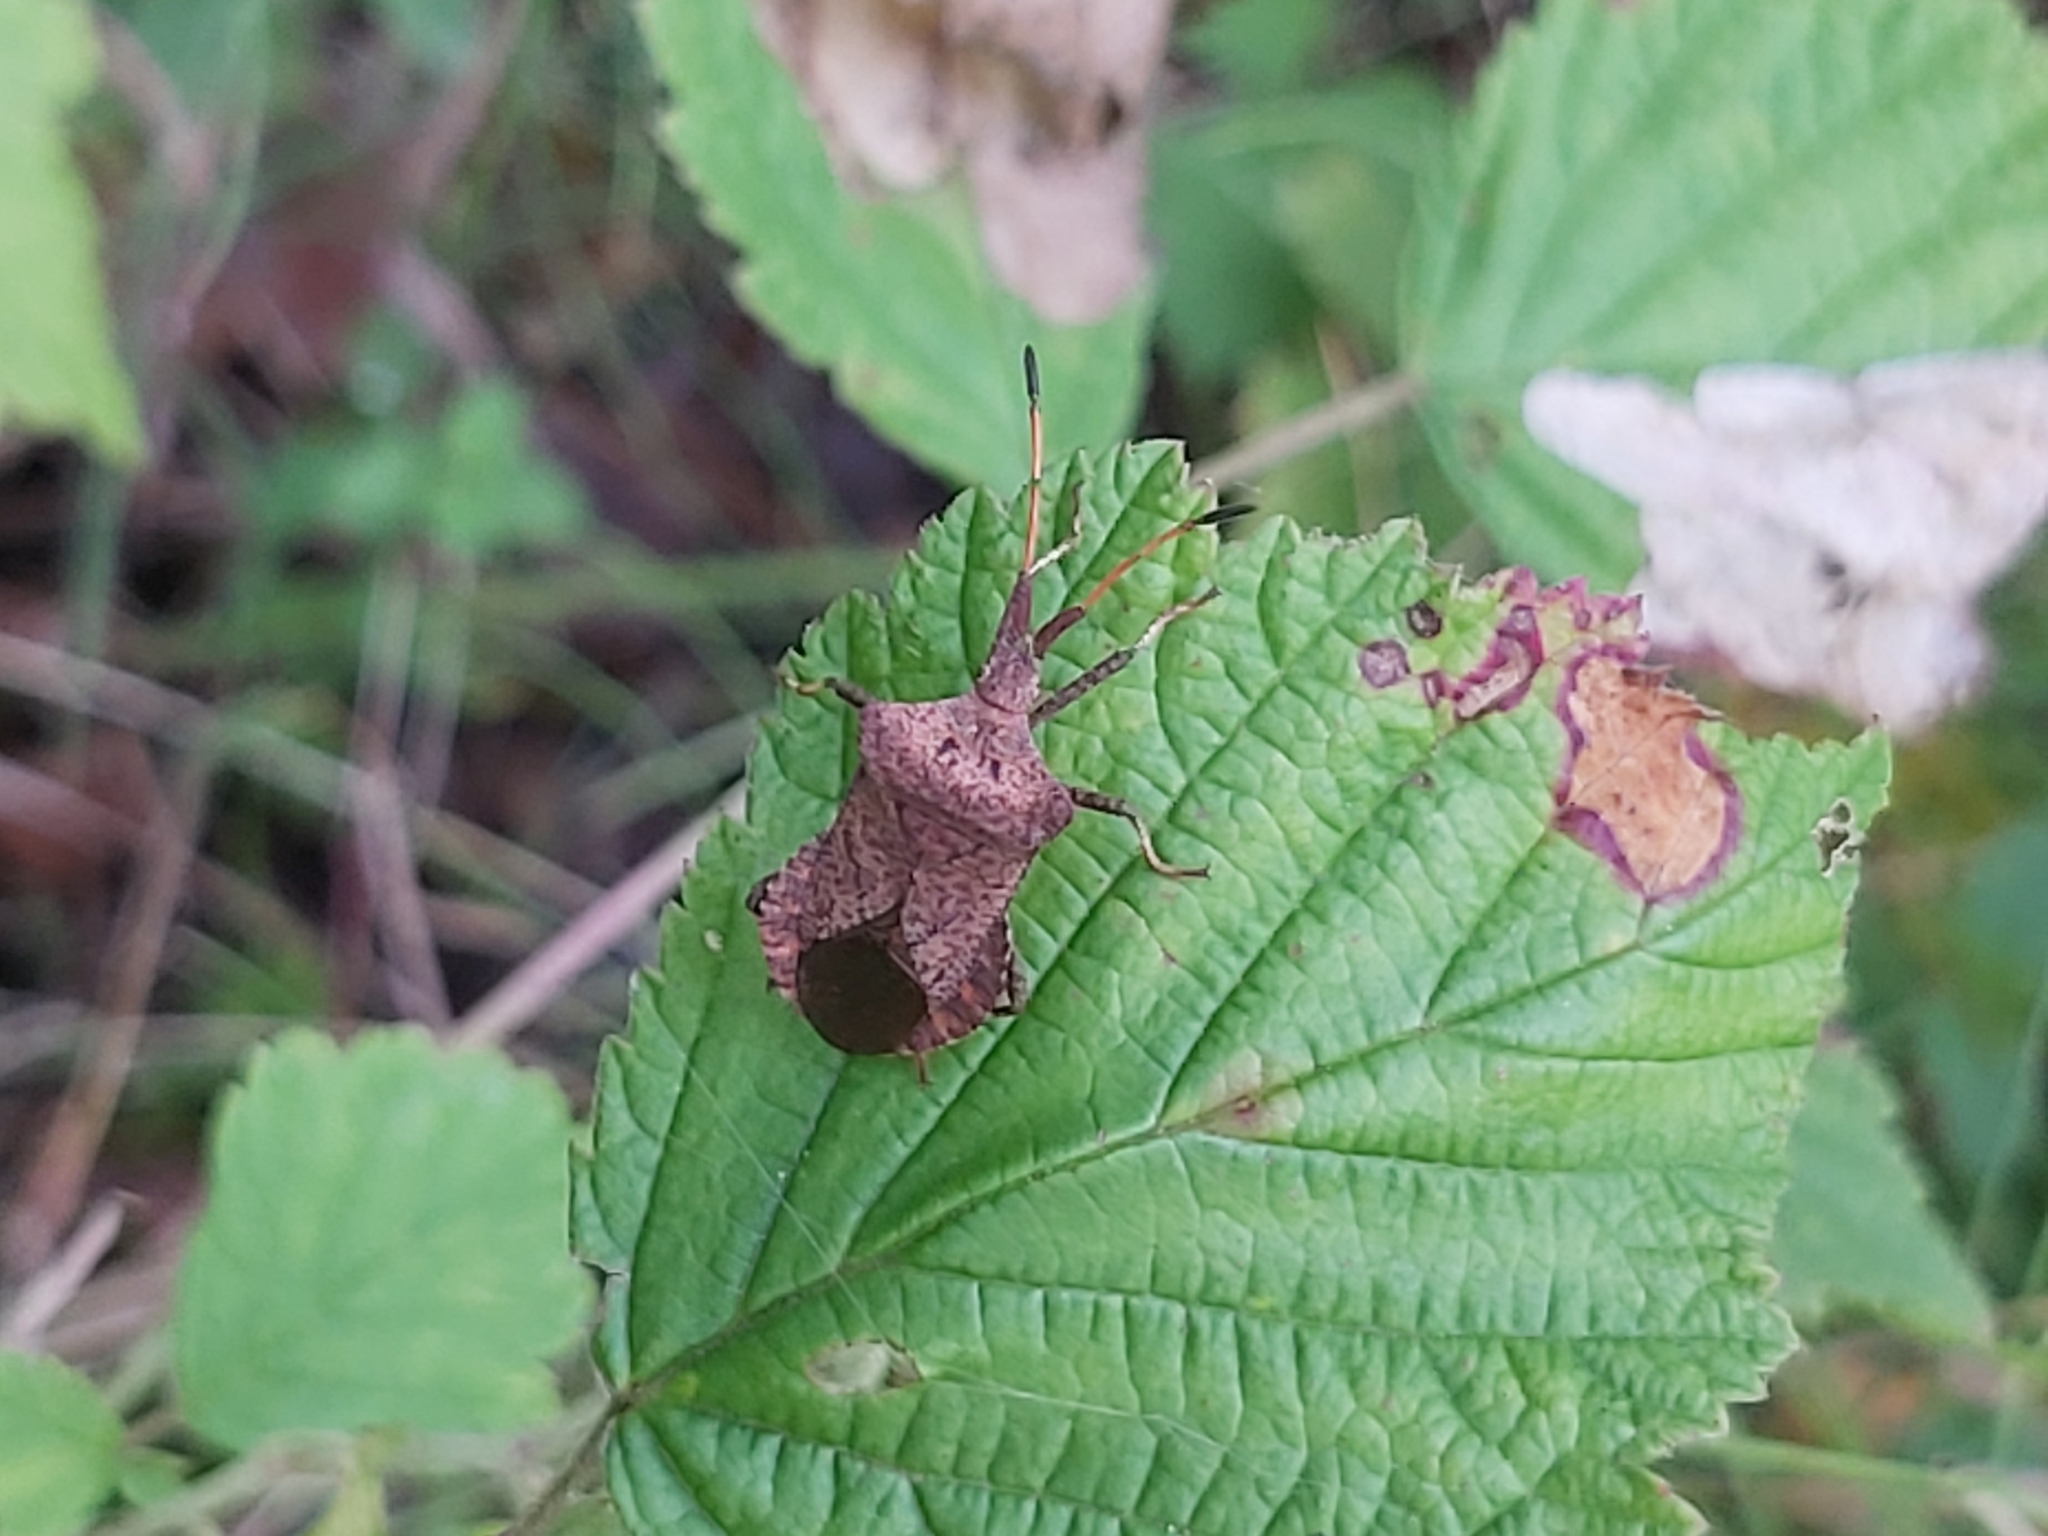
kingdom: Animalia
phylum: Arthropoda
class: Insecta
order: Hemiptera
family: Coreidae
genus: Coreus
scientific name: Coreus marginatus
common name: Dock bug
